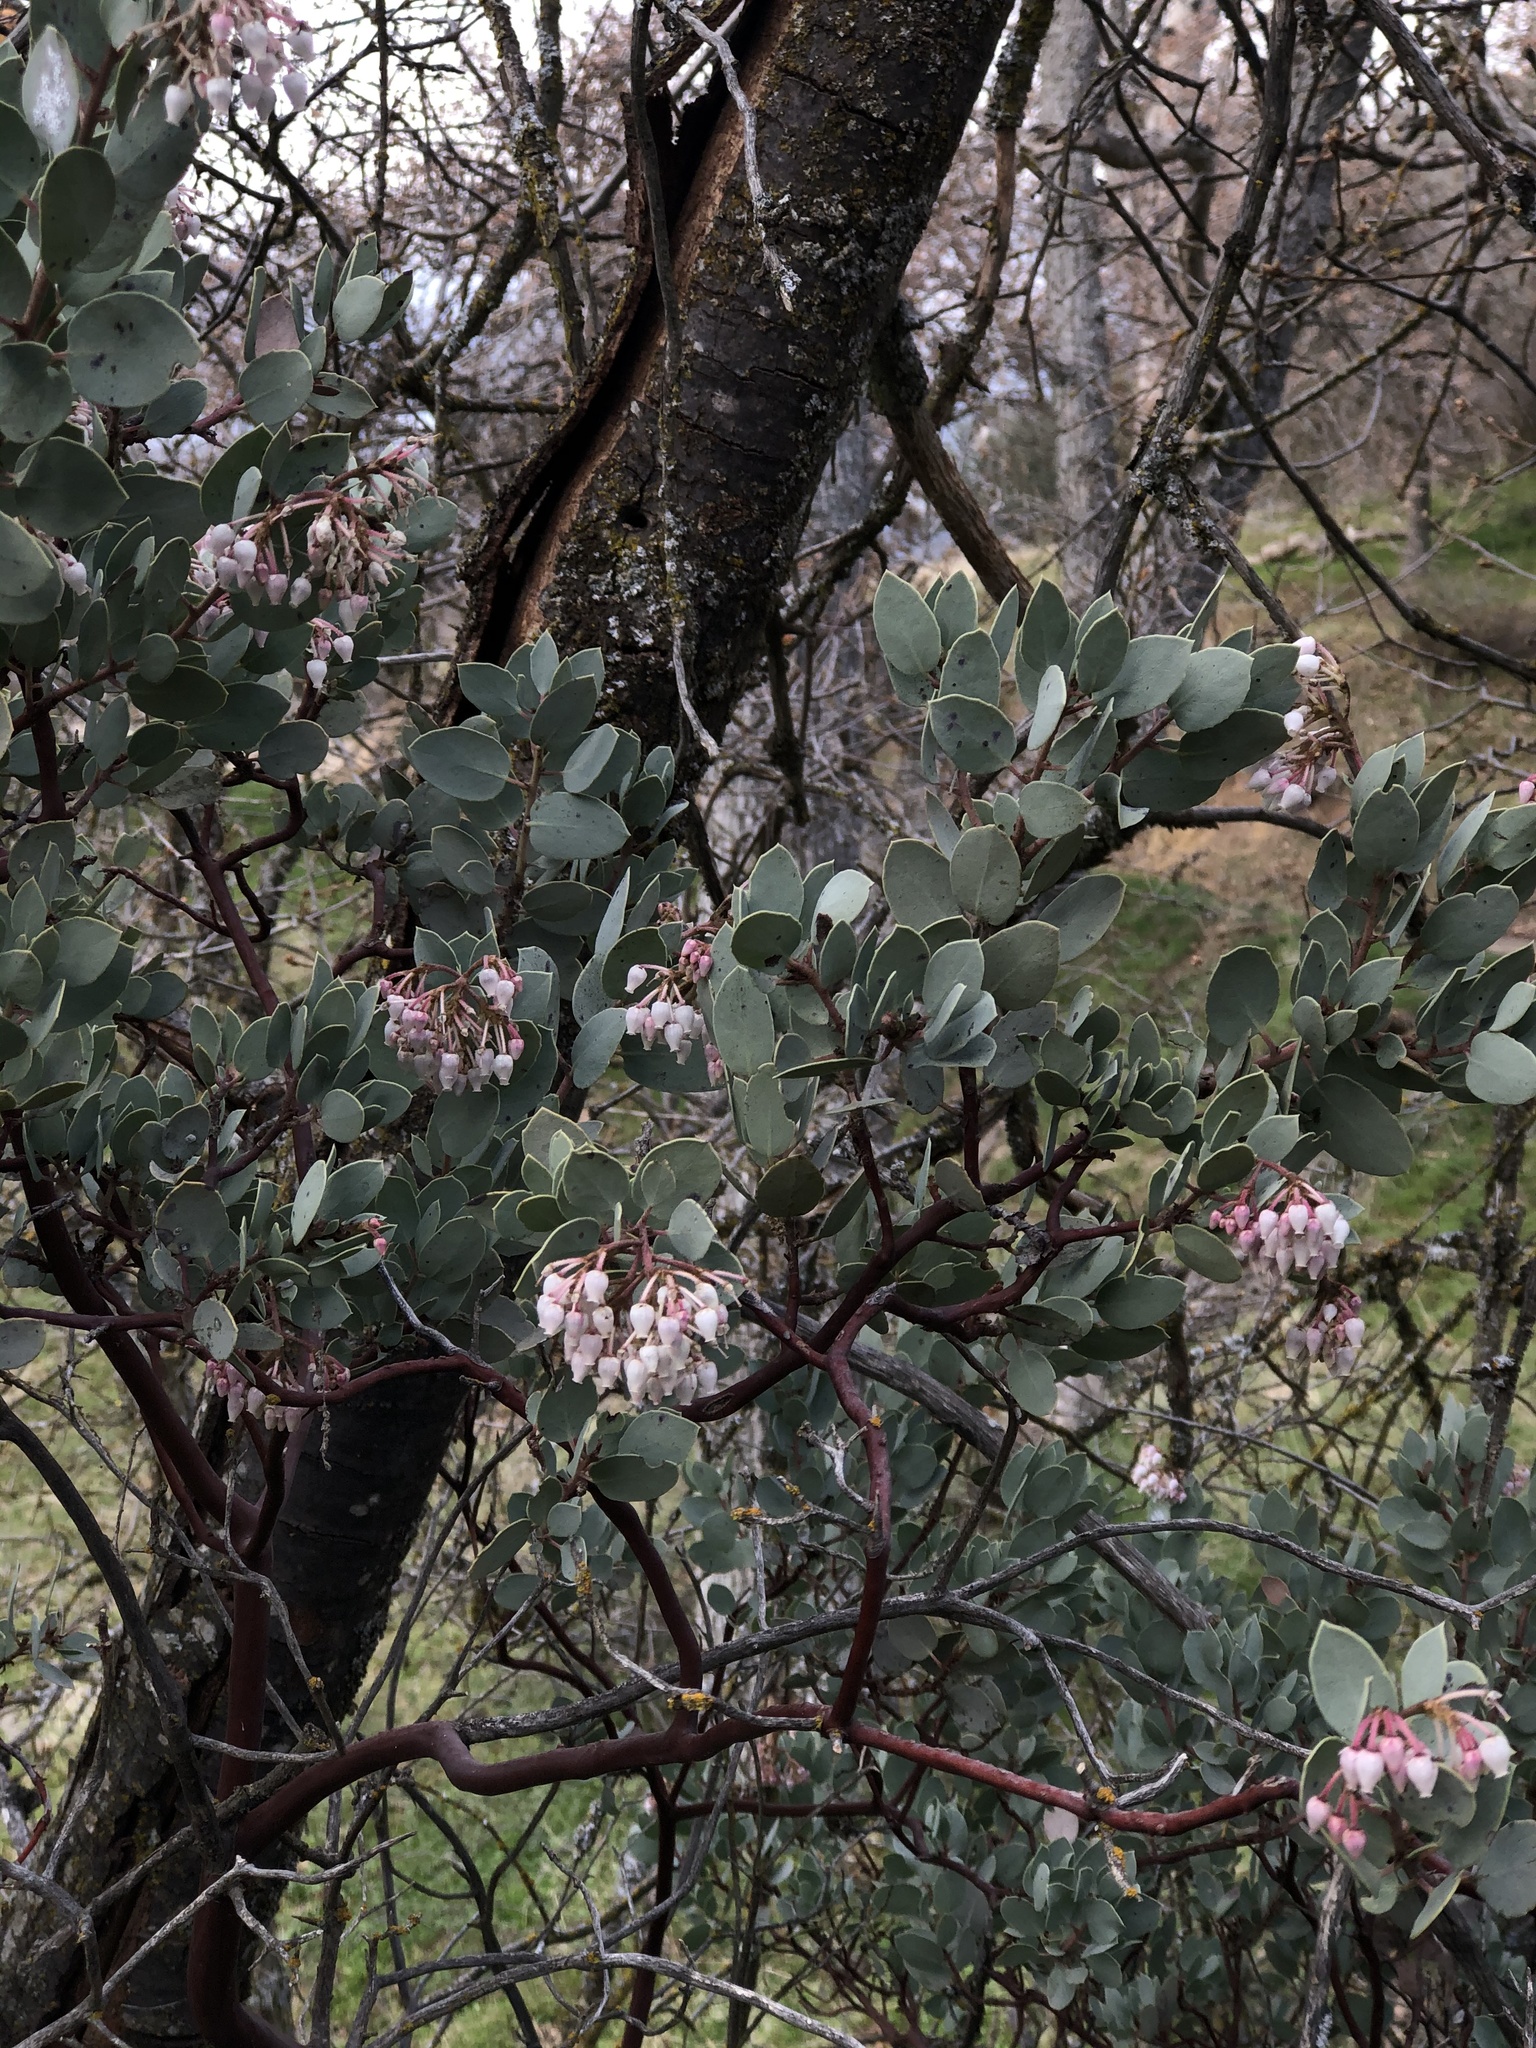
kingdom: Plantae
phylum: Tracheophyta
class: Magnoliopsida
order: Ericales
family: Ericaceae
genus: Arctostaphylos
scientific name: Arctostaphylos viscida
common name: White-leaf manzanita
